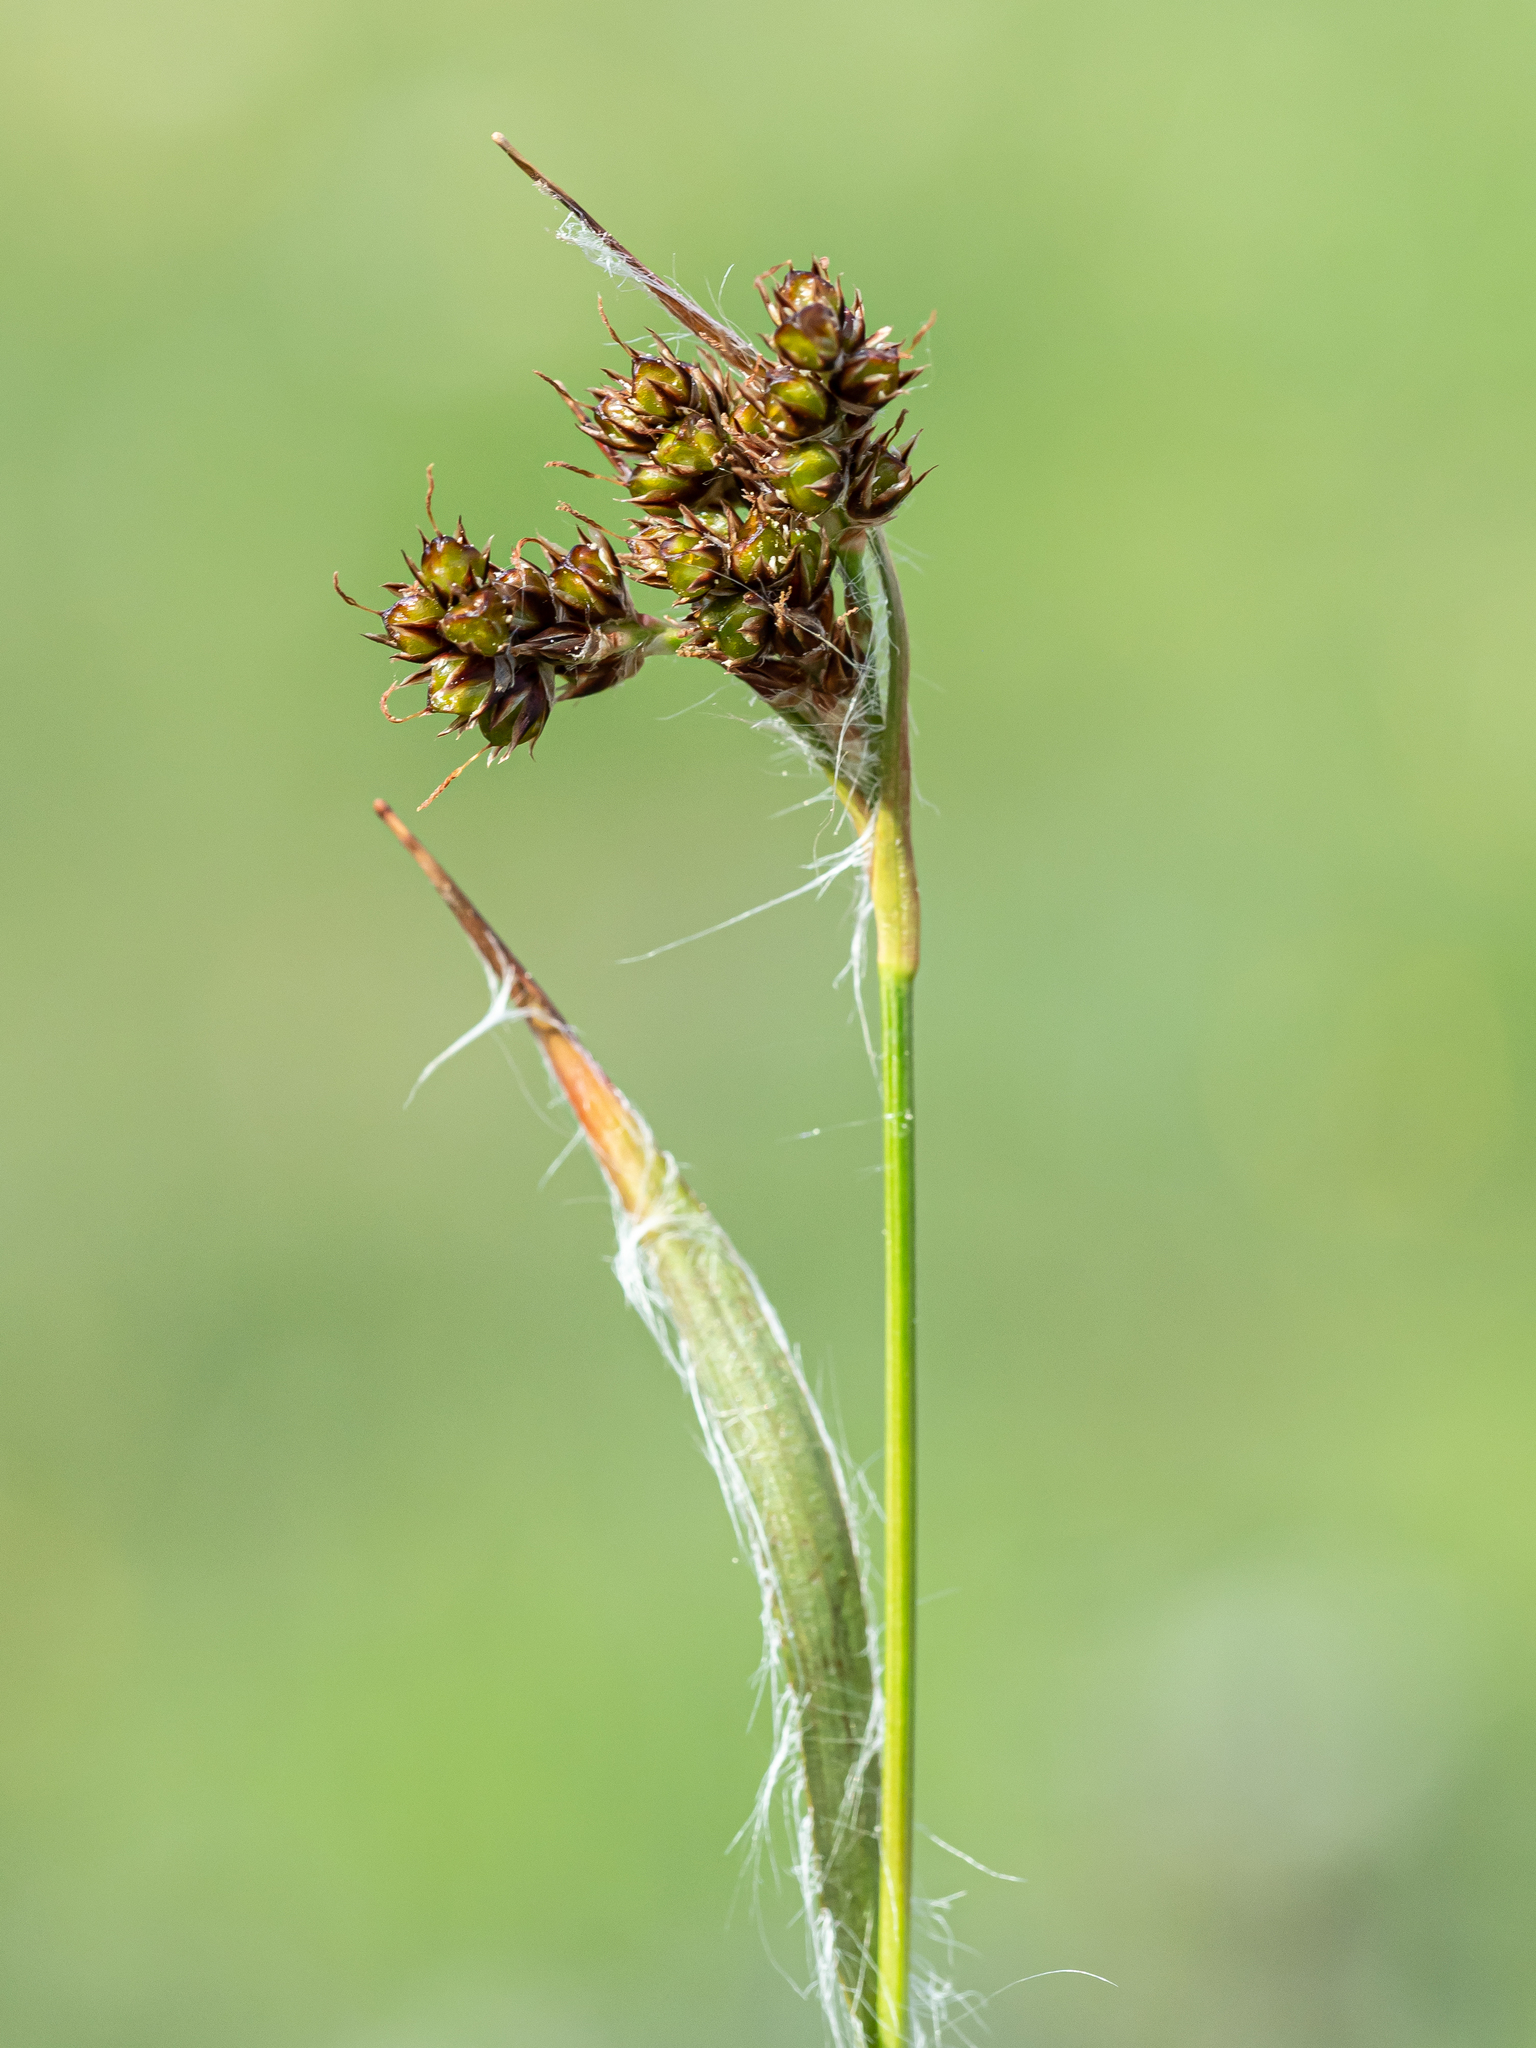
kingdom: Plantae
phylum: Tracheophyta
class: Liliopsida
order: Poales
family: Juncaceae
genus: Luzula
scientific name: Luzula campestris
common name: Field wood-rush
